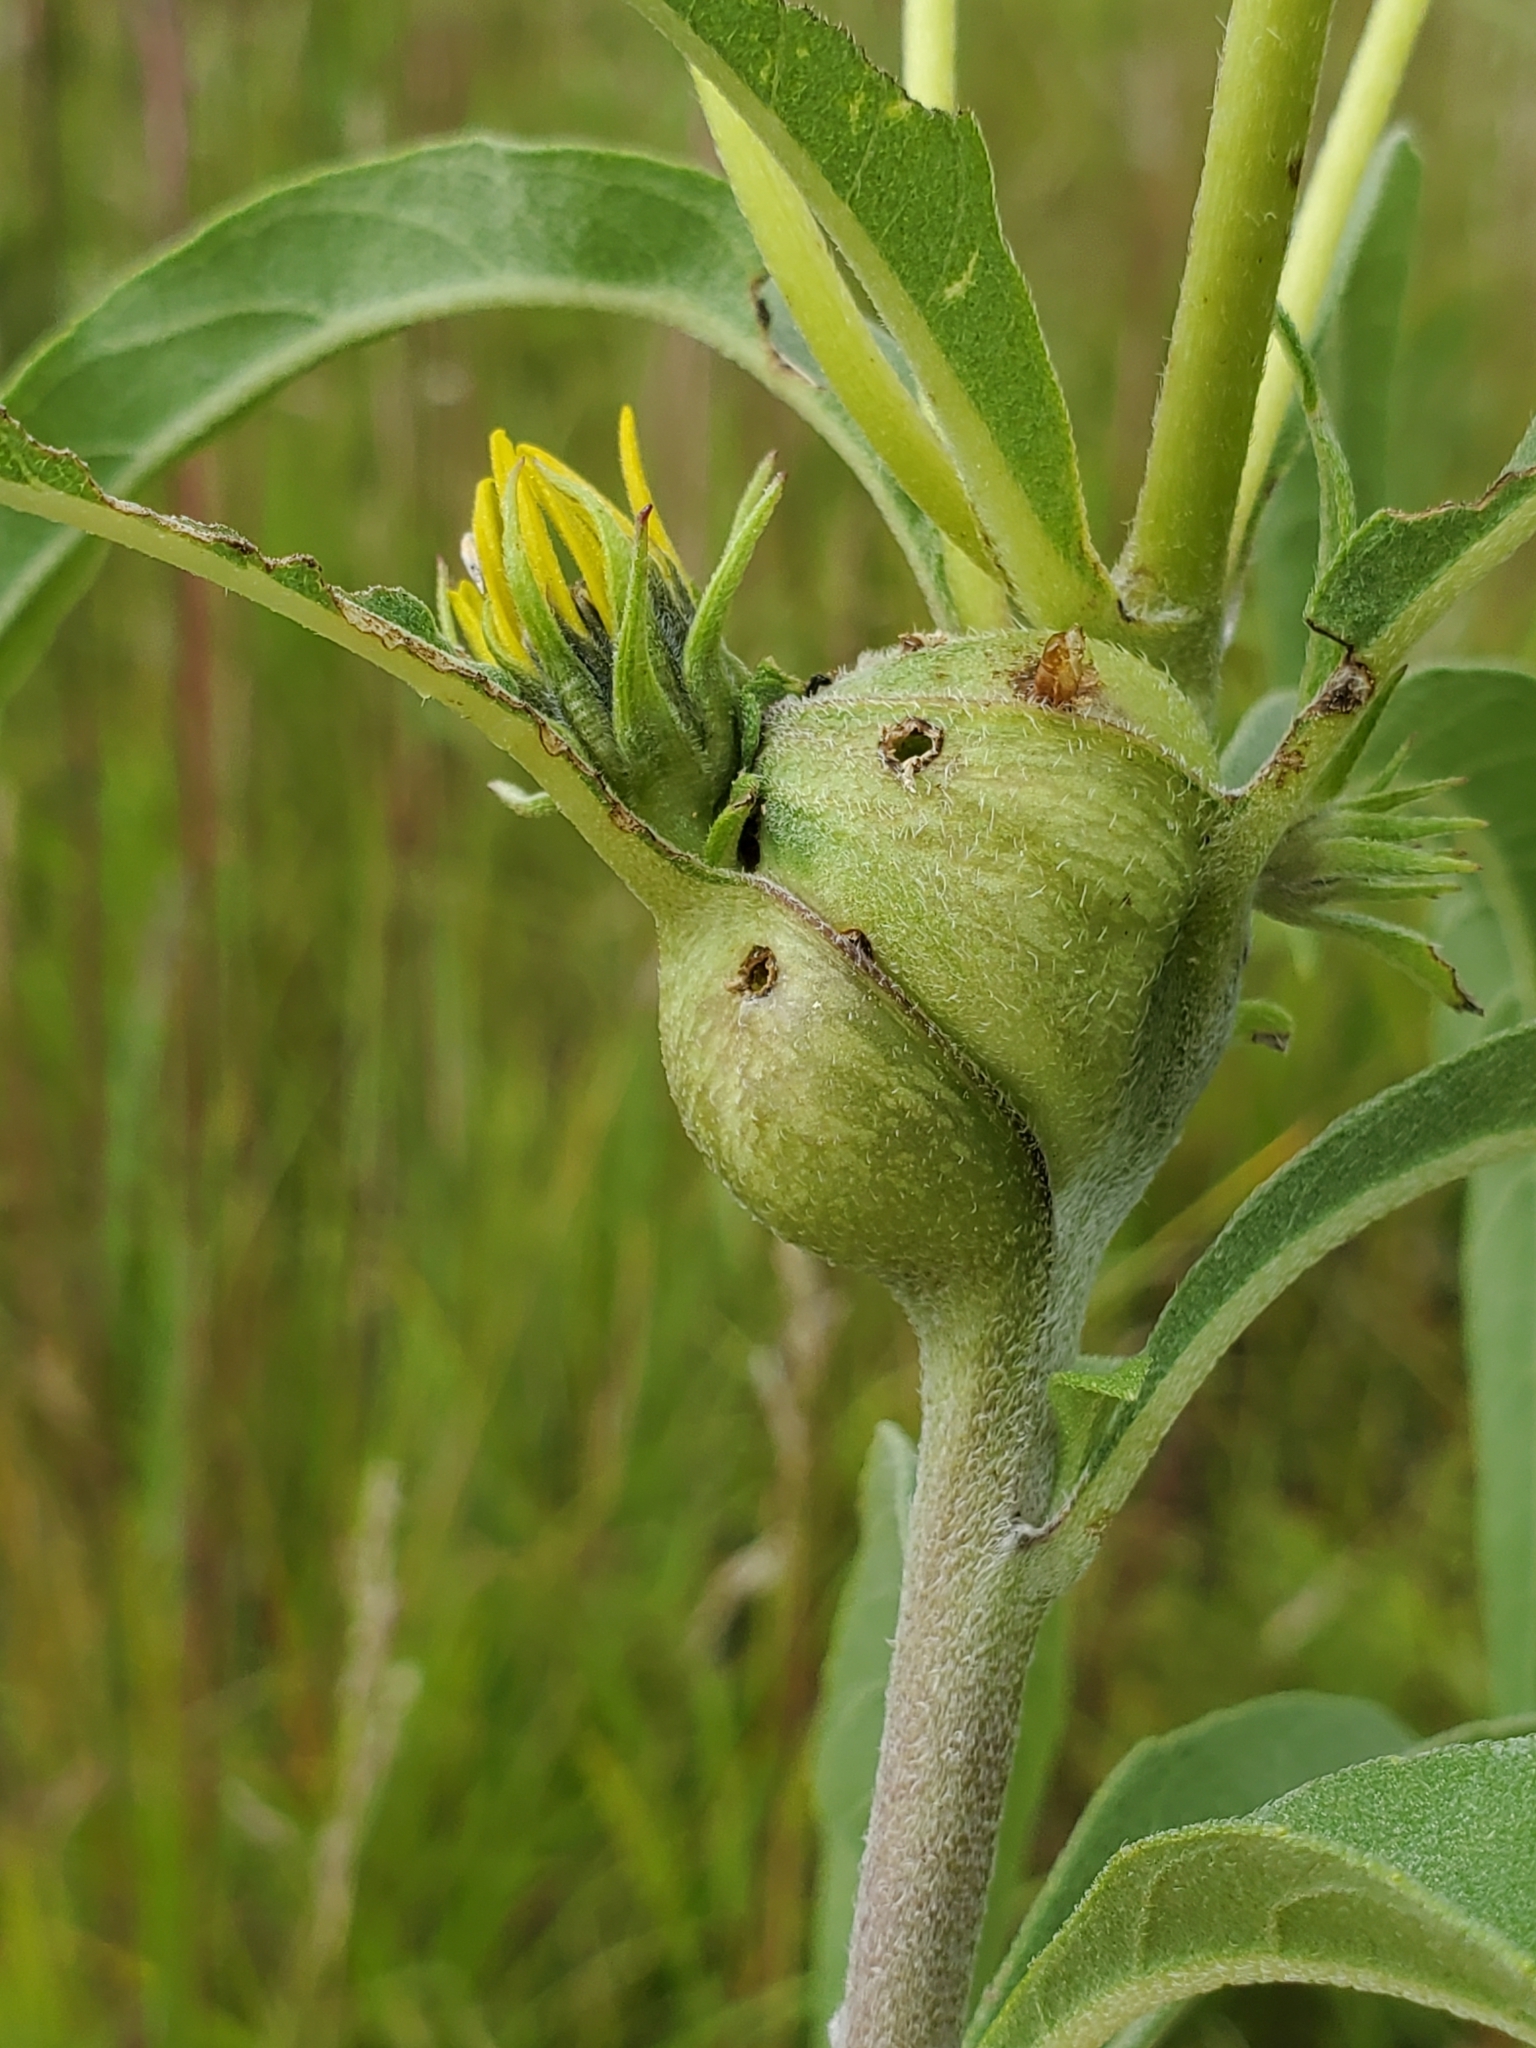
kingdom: Animalia
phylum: Arthropoda
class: Insecta
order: Diptera
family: Cecidomyiidae
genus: Asphondylia
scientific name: Asphondylia helianthiglobulus
